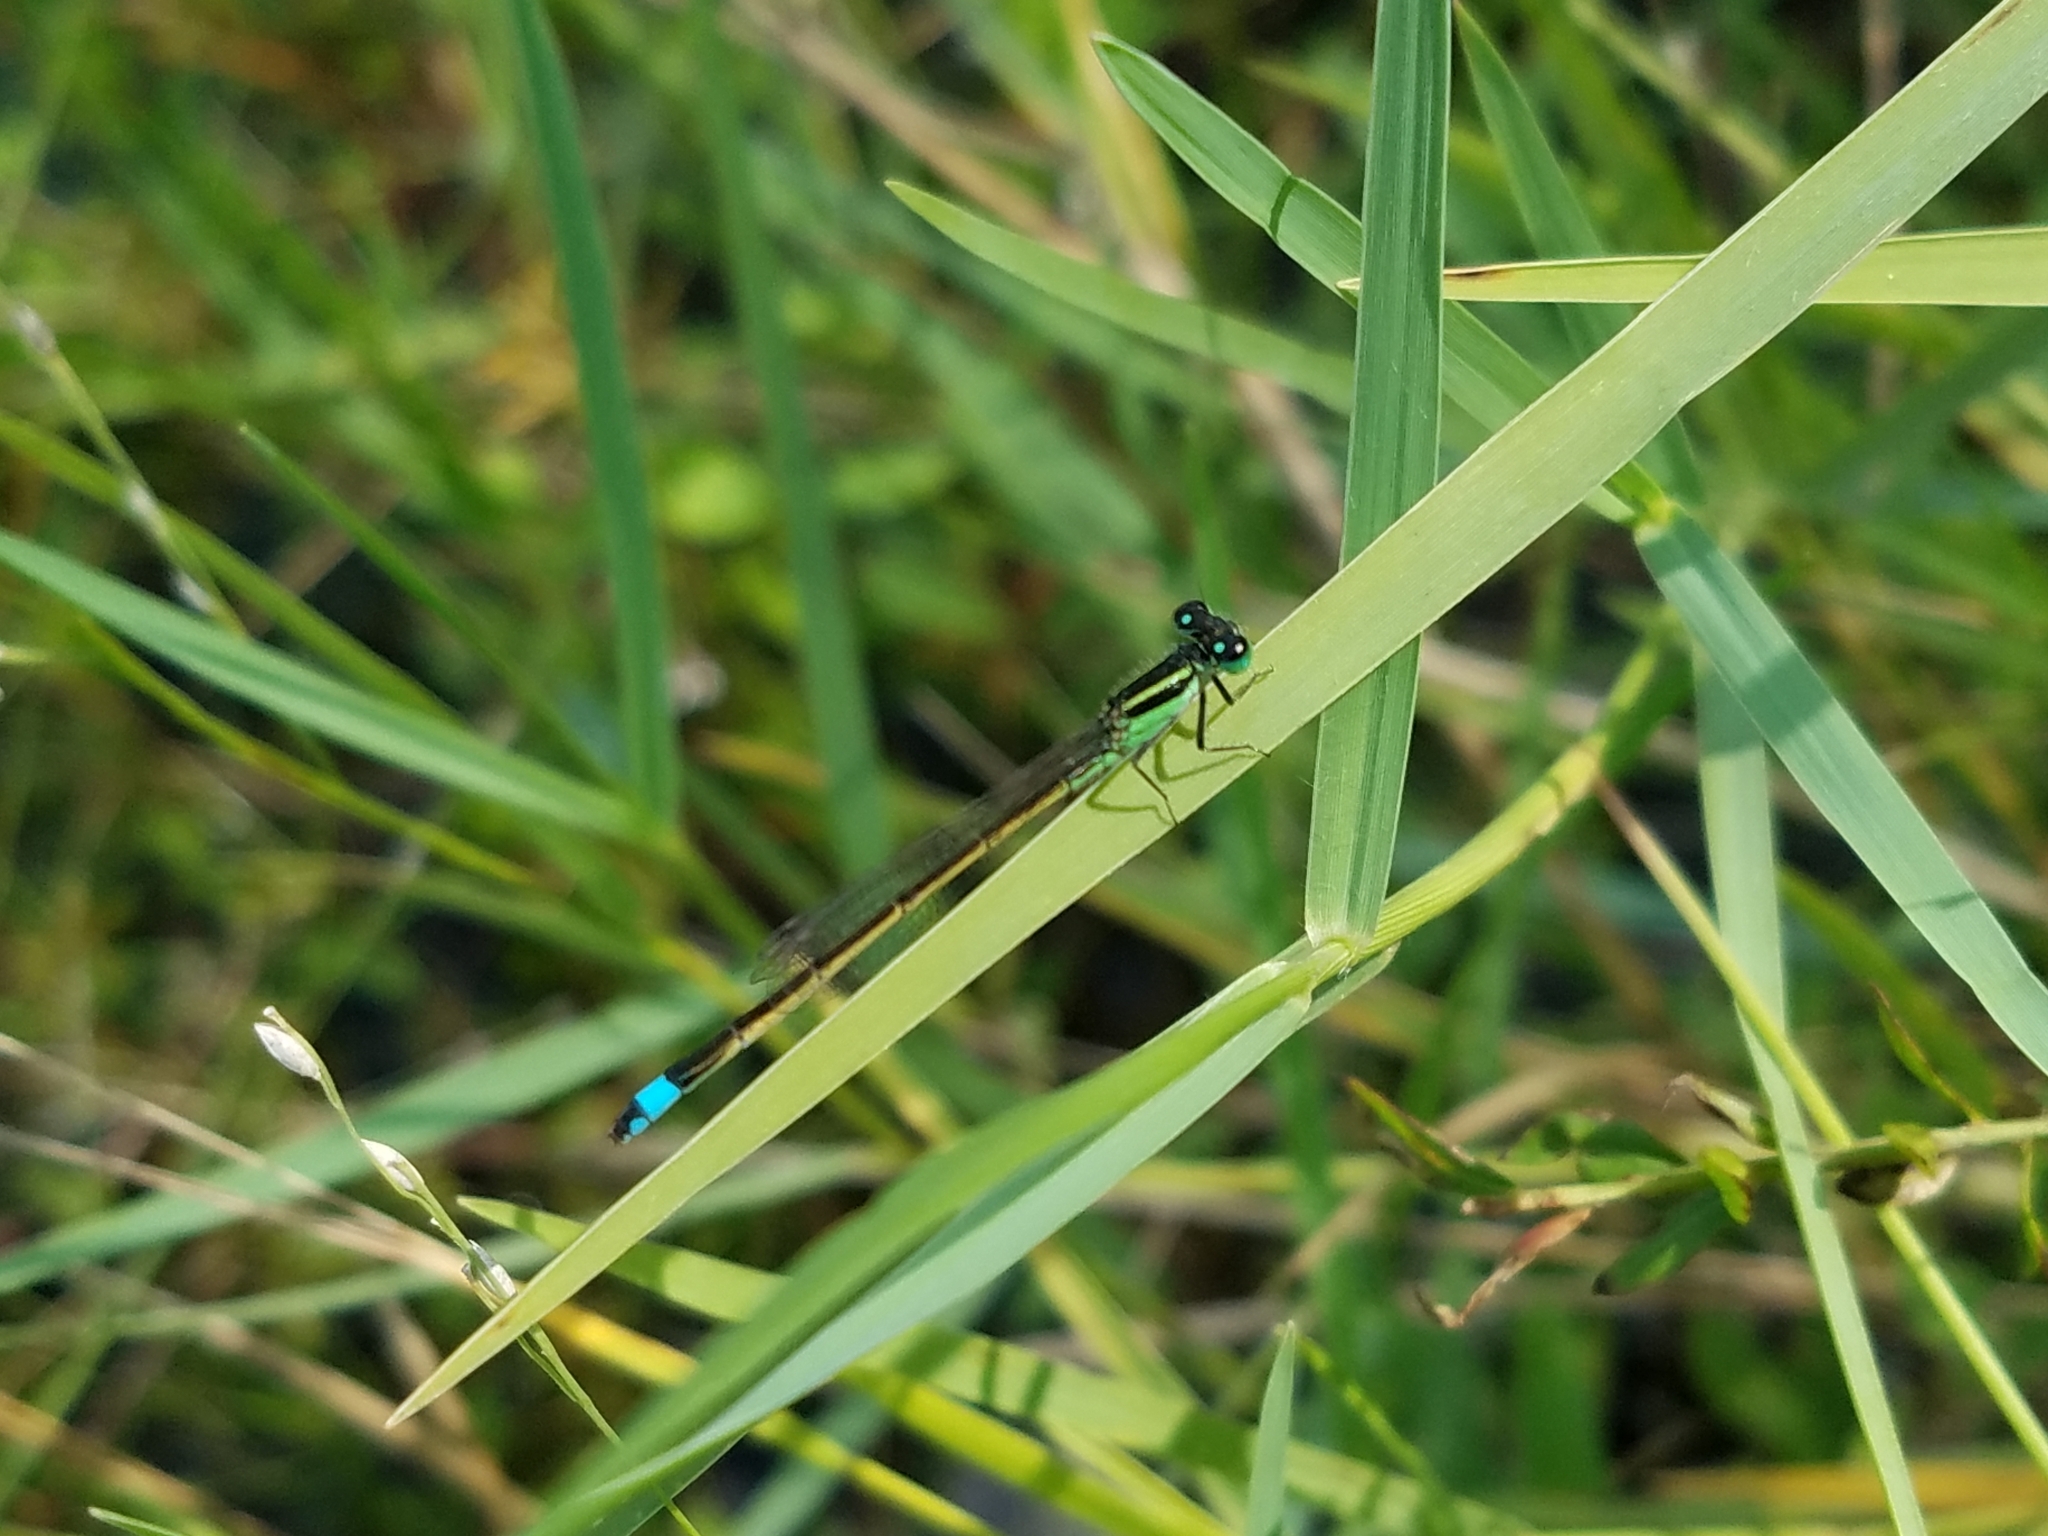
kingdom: Animalia
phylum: Arthropoda
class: Insecta
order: Odonata
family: Coenagrionidae
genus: Ischnura
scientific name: Ischnura ramburii
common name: Rambur's forktail
